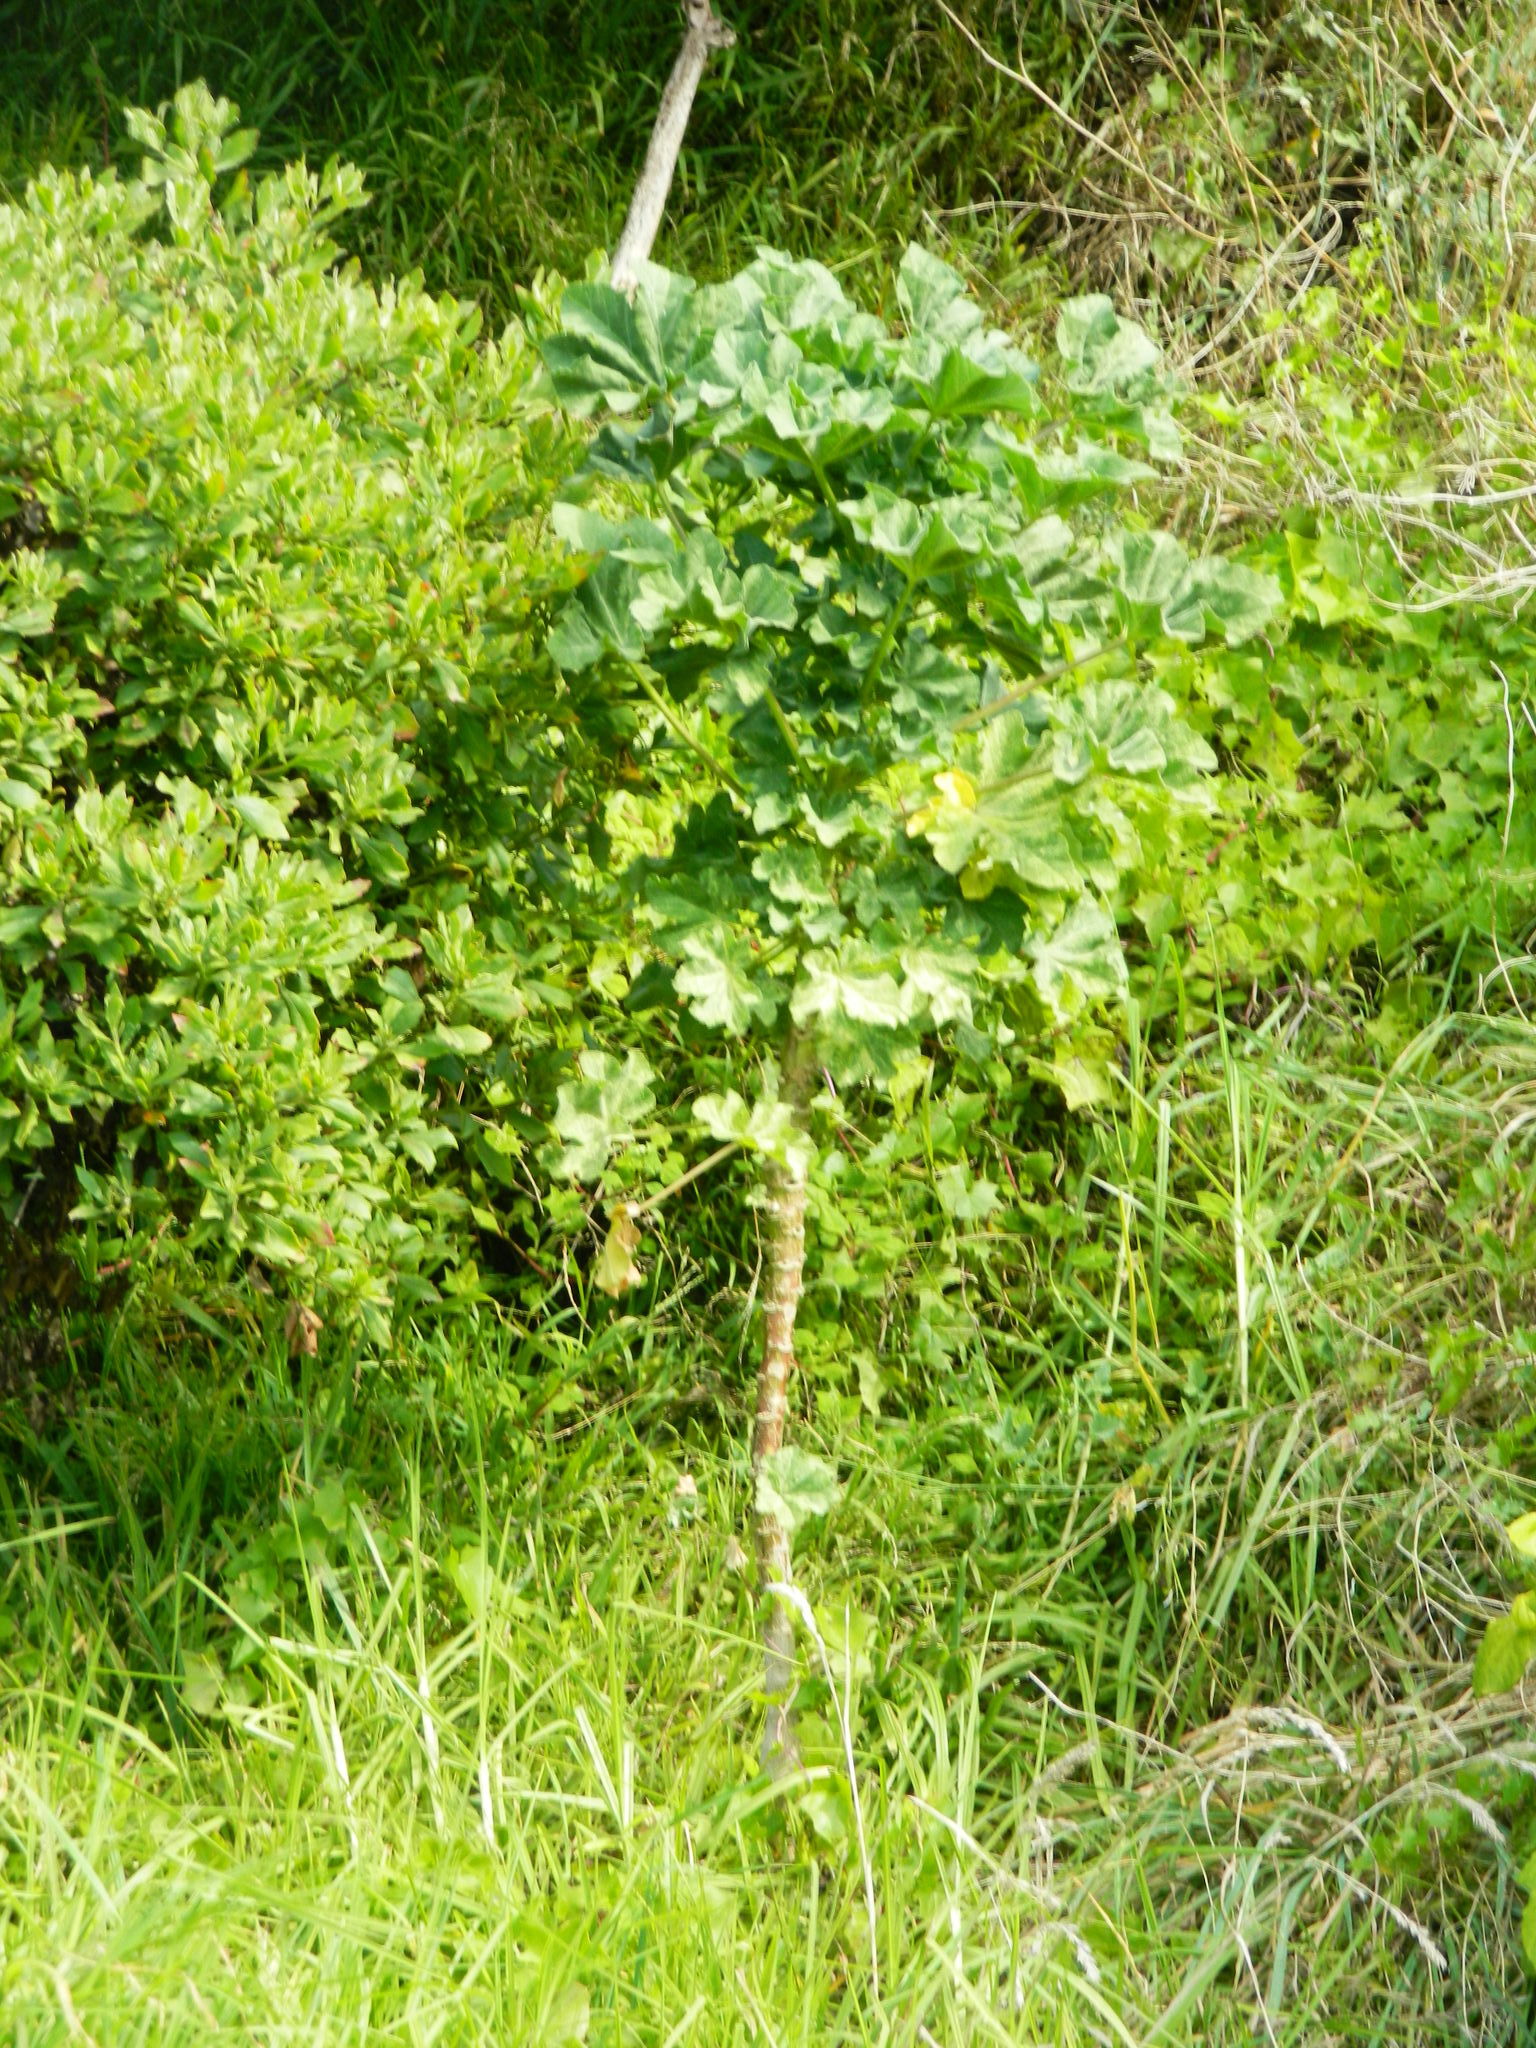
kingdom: Plantae
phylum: Tracheophyta
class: Magnoliopsida
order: Malvales
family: Malvaceae
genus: Malva
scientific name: Malva arborea
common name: Tree mallow
